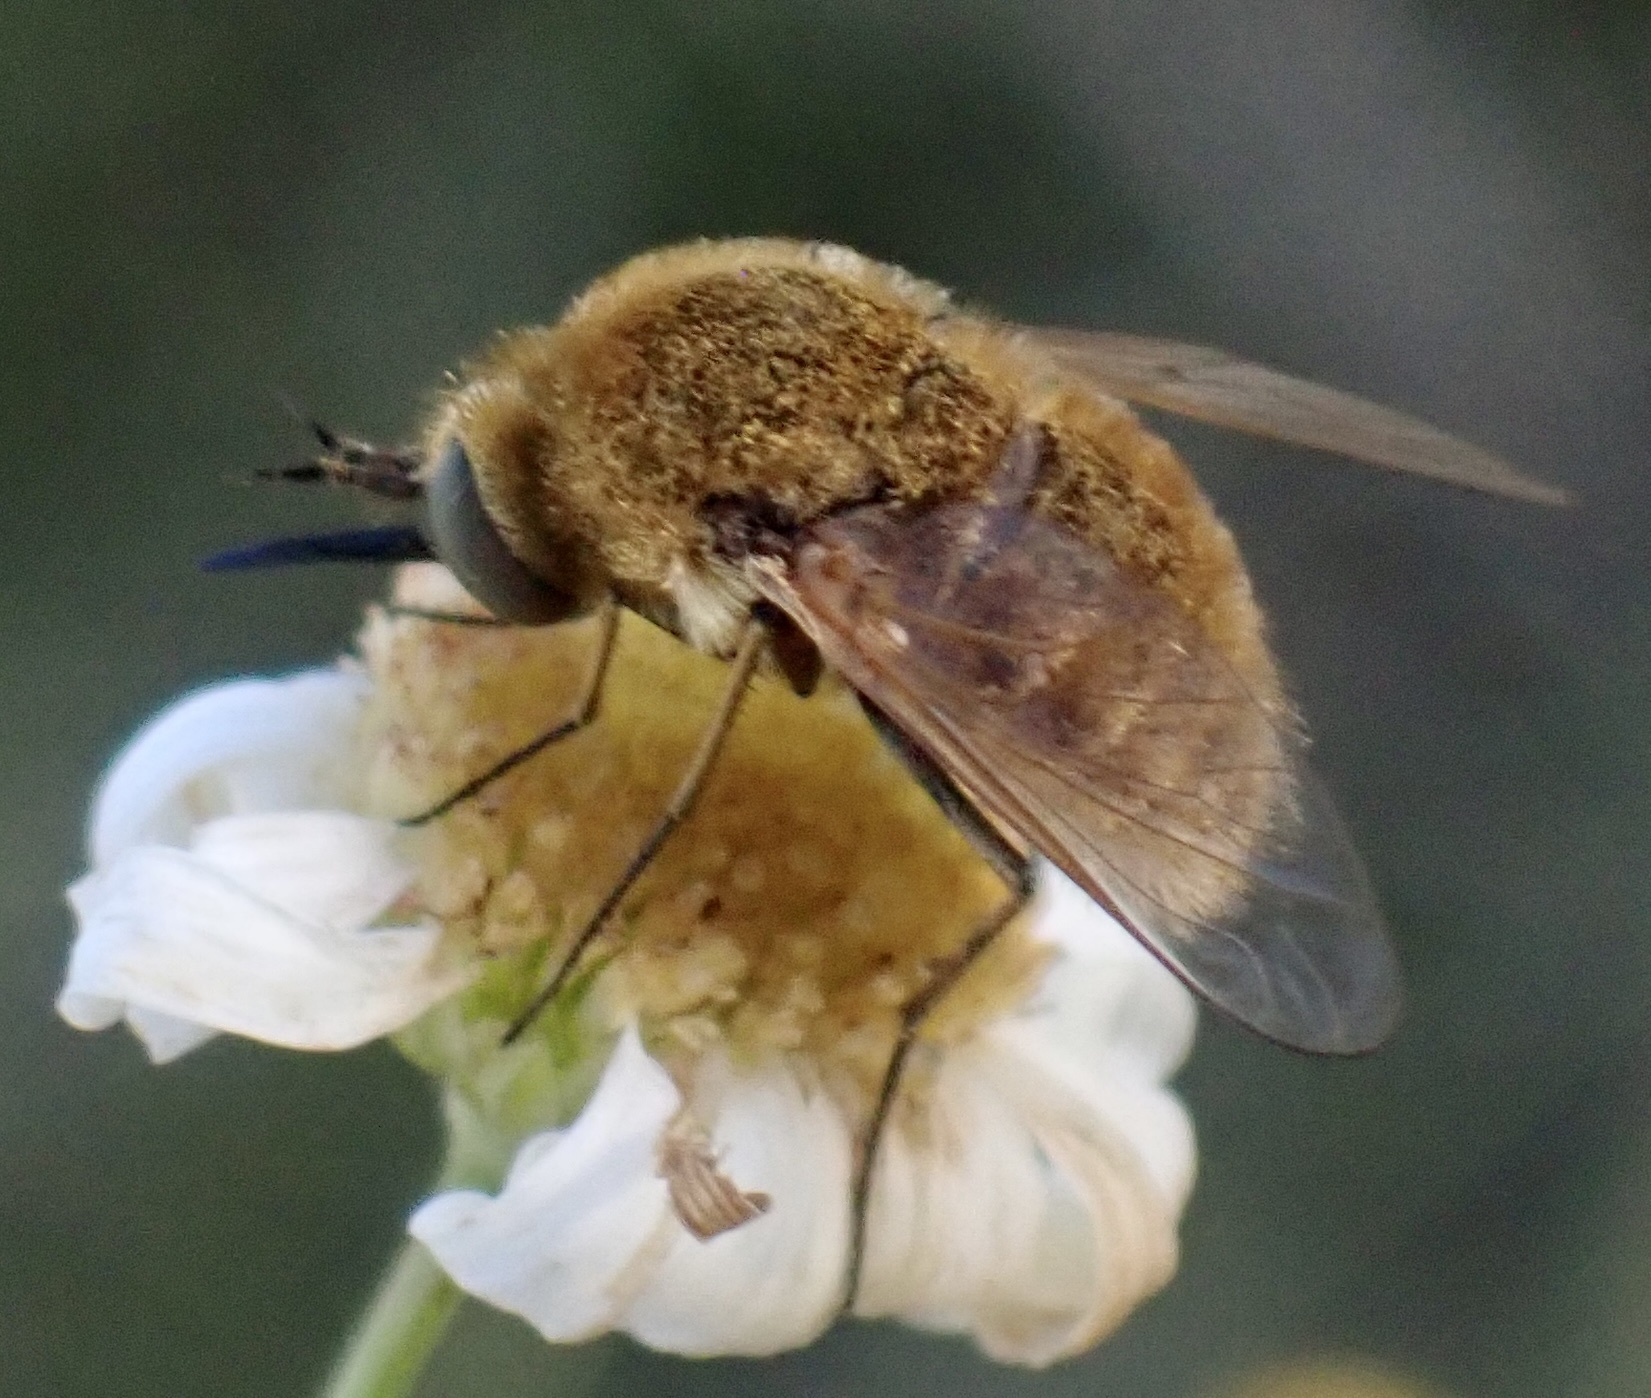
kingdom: Animalia
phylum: Arthropoda
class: Insecta
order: Diptera
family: Bombyliidae
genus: Sparnopolius
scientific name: Sparnopolius confusus
